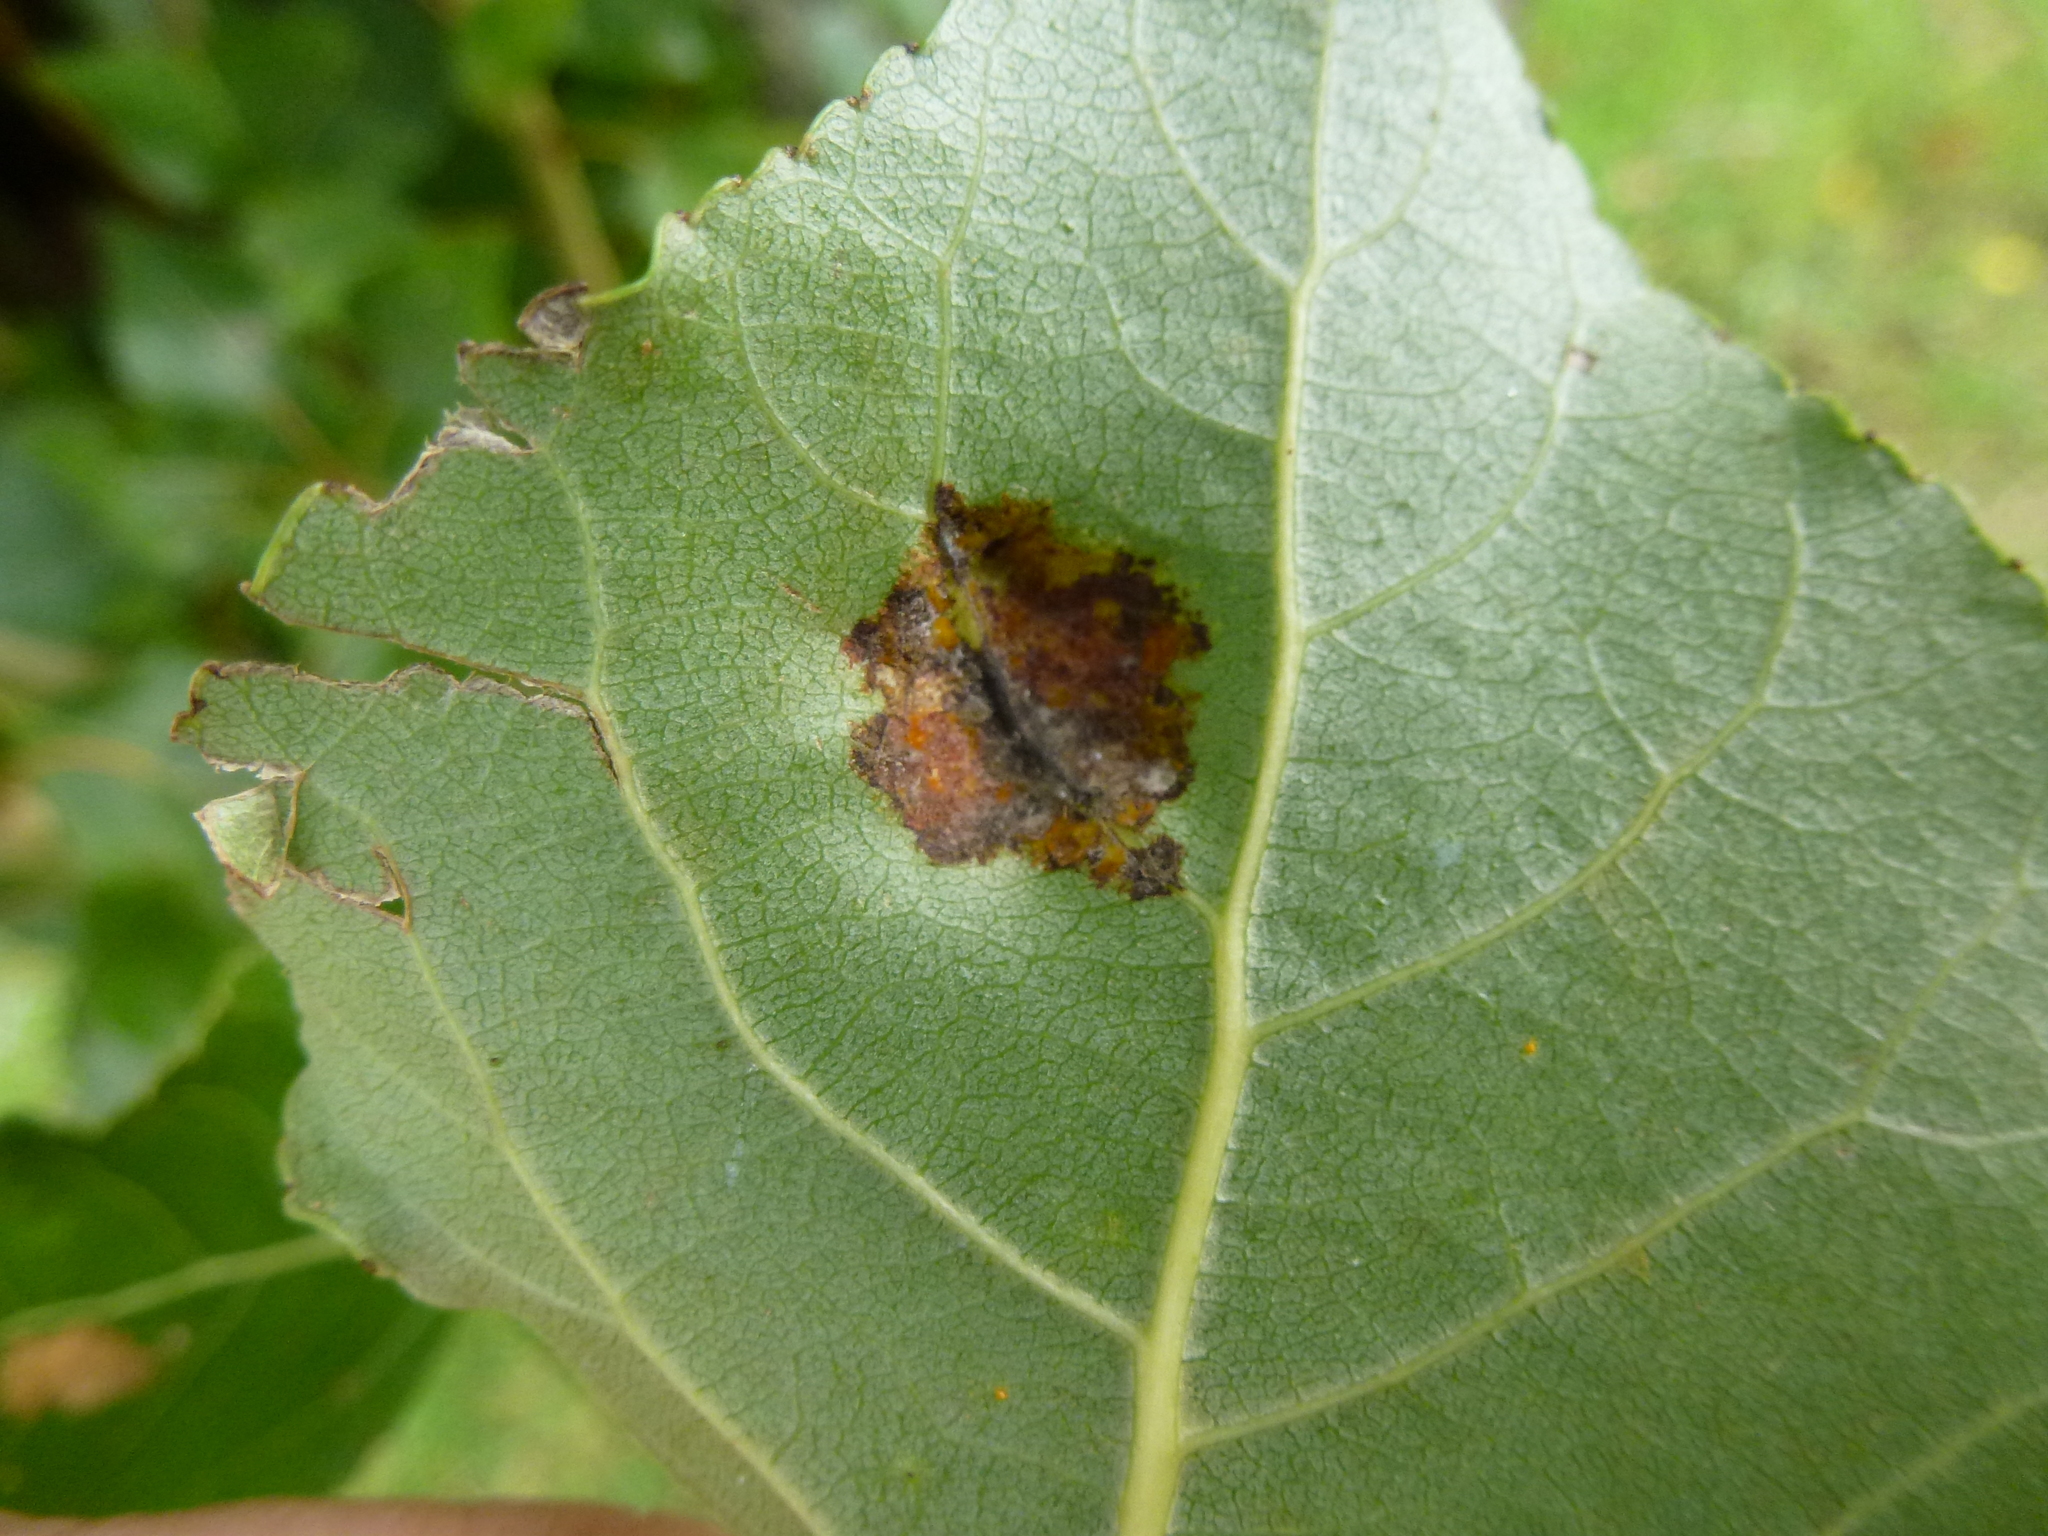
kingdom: Animalia
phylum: Arthropoda
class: Arachnida
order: Trombidiformes
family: Eriophyidae
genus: Phyllocoptes
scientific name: Phyllocoptes populi
